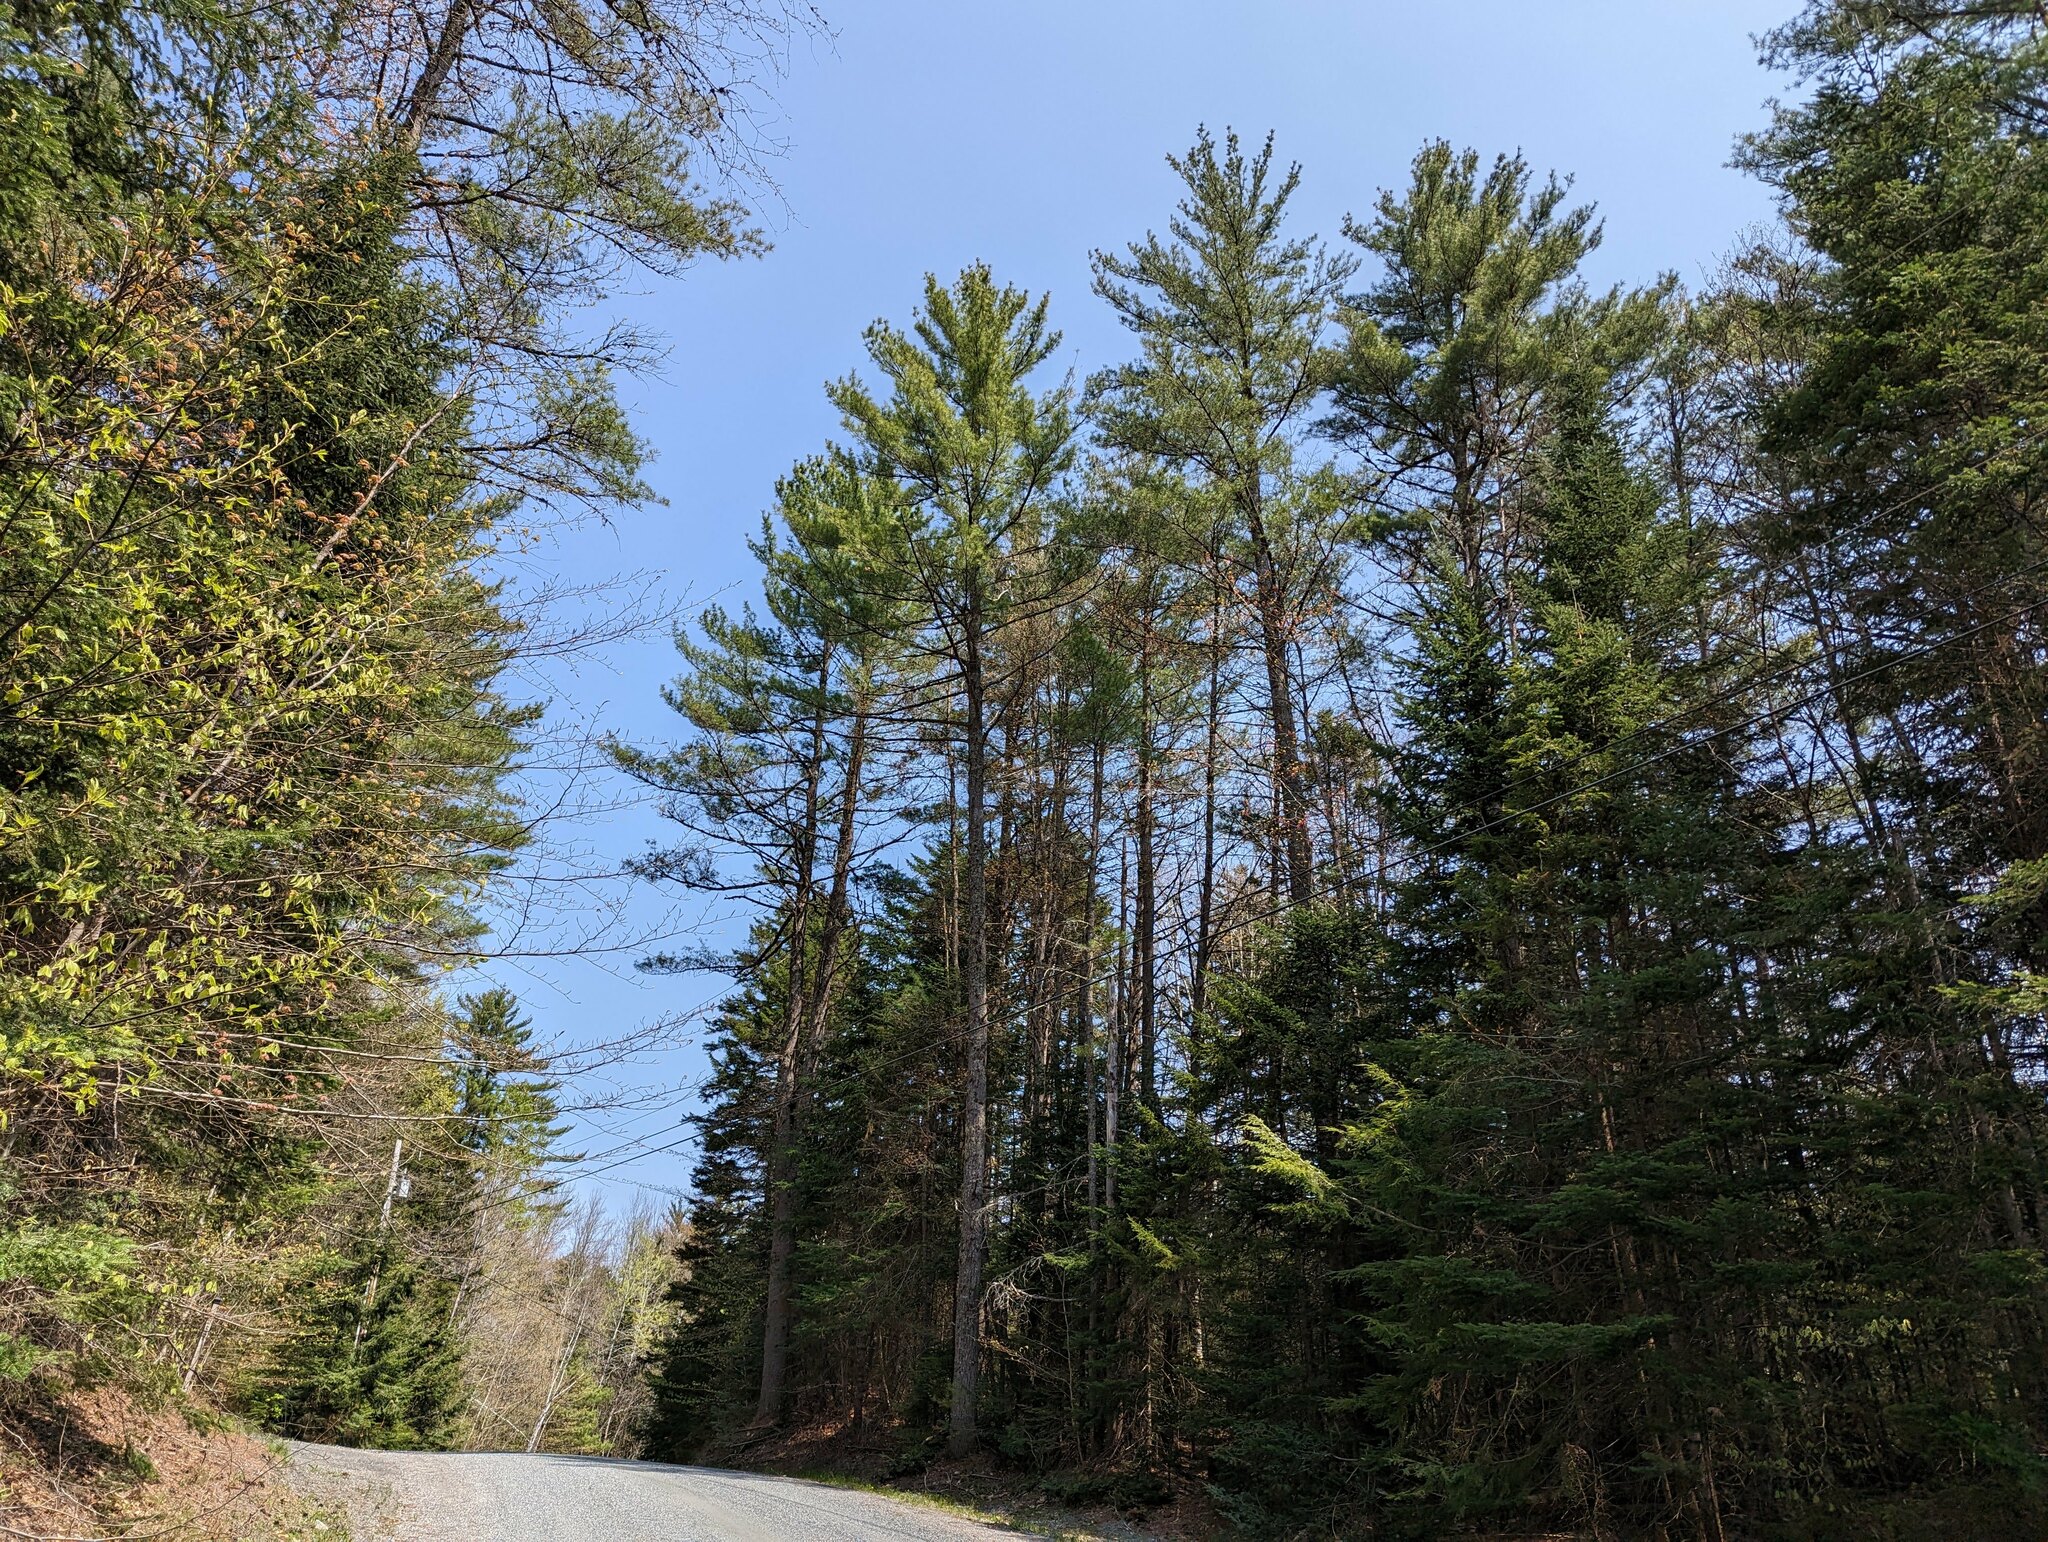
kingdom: Plantae
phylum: Tracheophyta
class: Pinopsida
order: Pinales
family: Pinaceae
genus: Pinus
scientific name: Pinus strobus
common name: Weymouth pine
